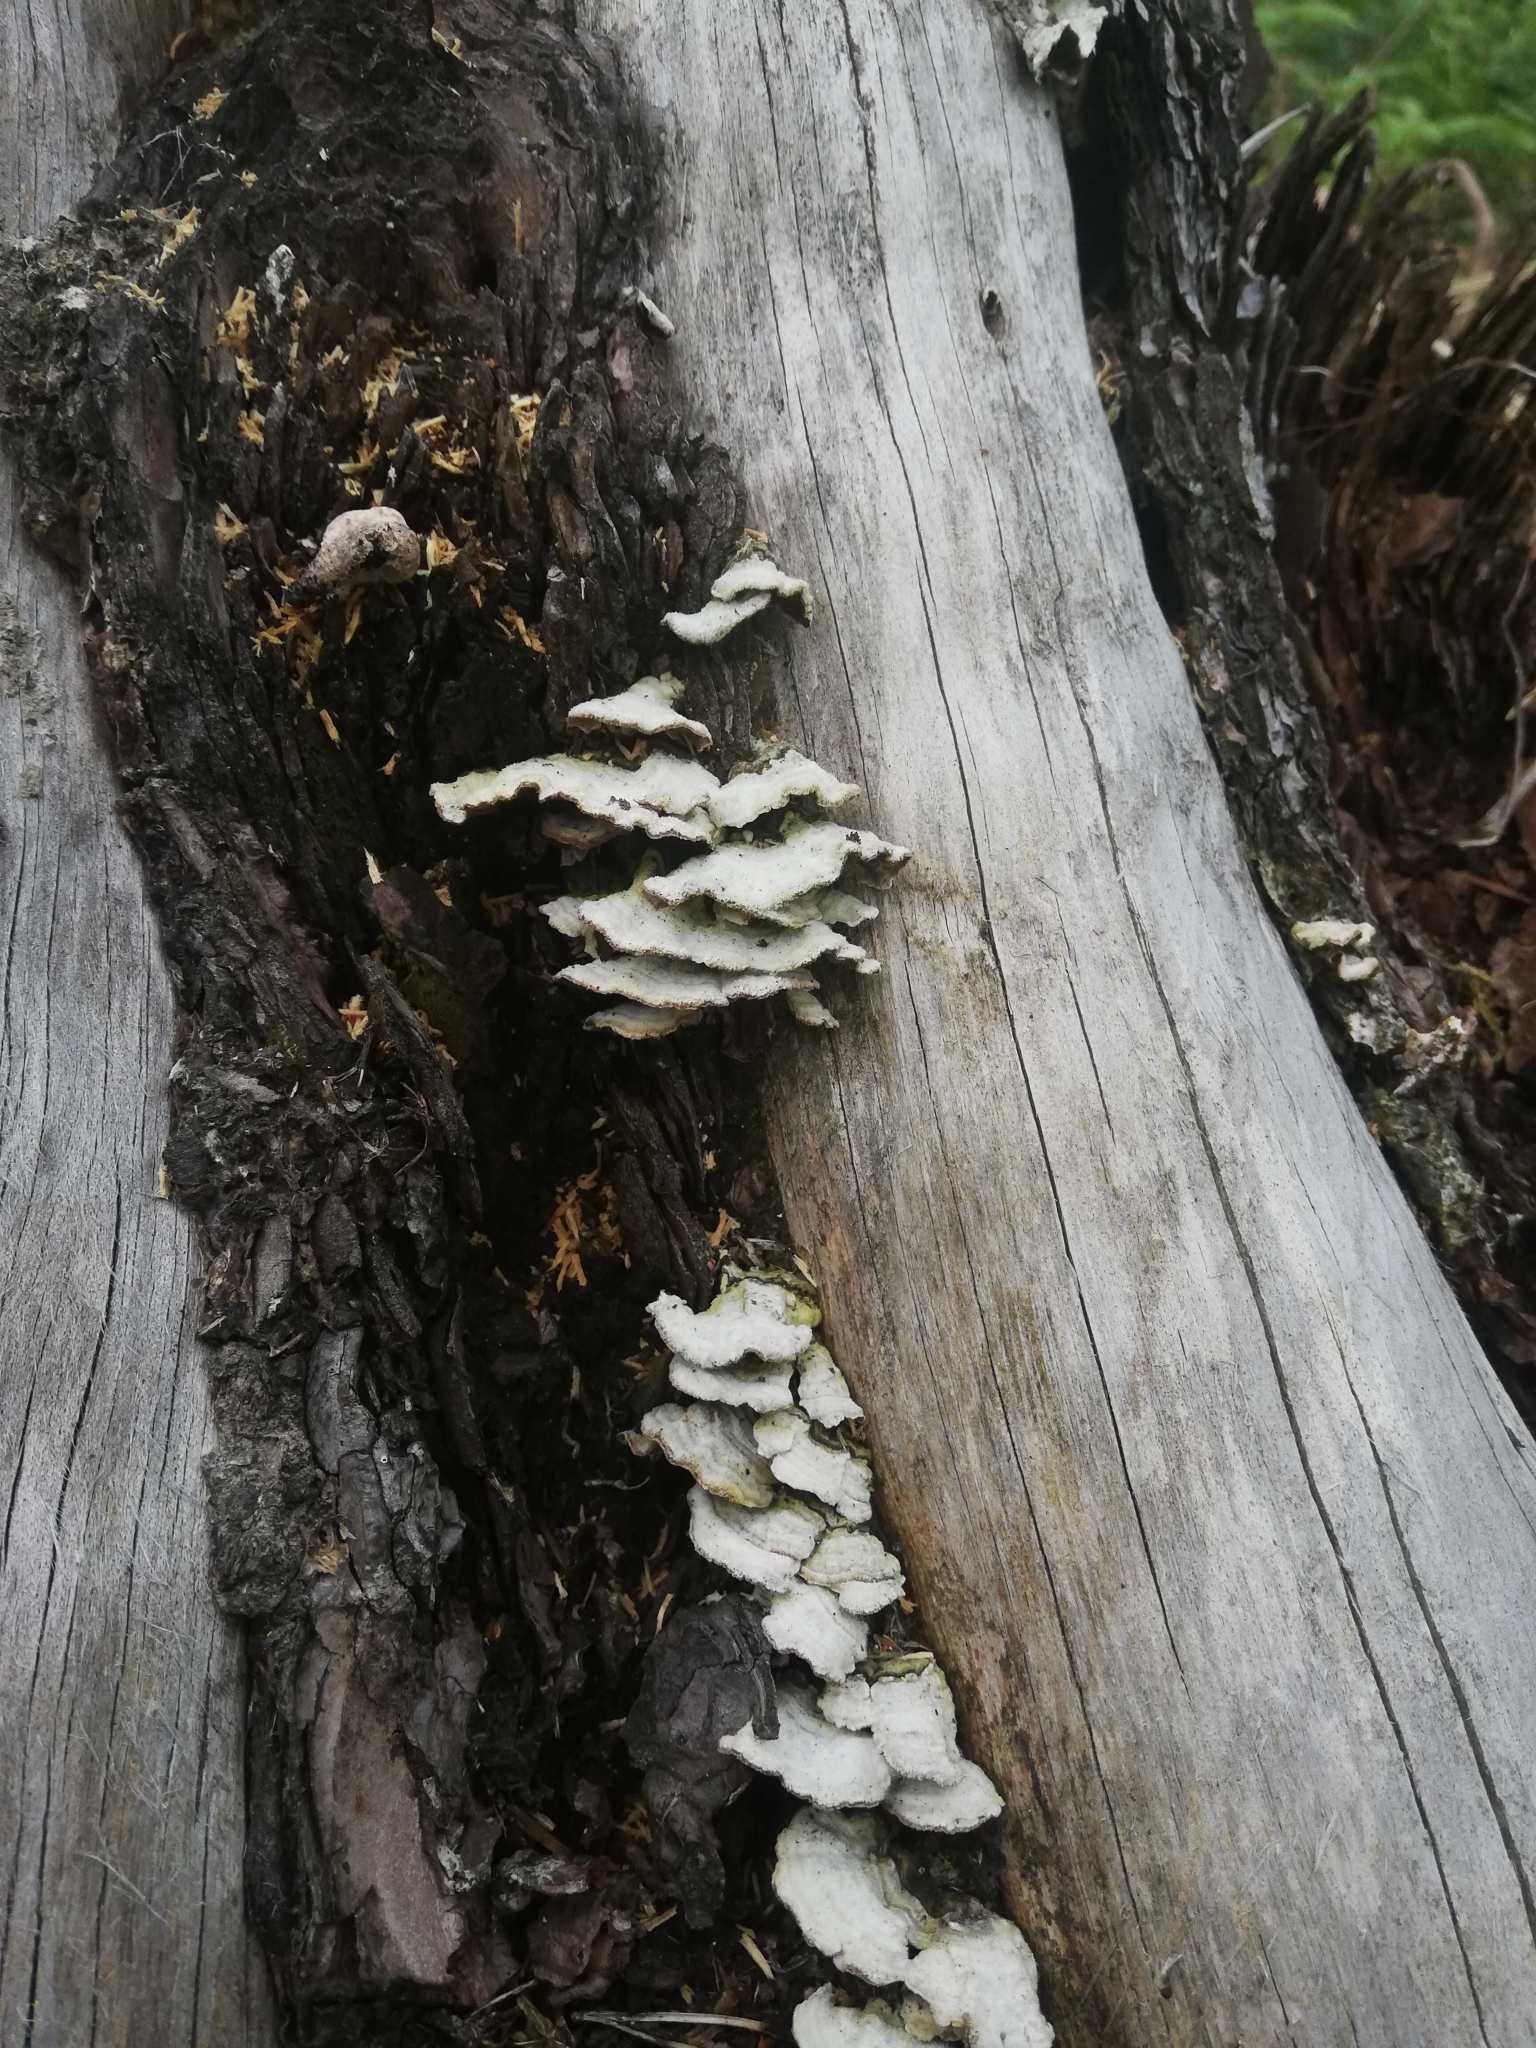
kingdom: Fungi
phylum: Basidiomycota
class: Agaricomycetes
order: Hymenochaetales
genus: Trichaptum
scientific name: Trichaptum abietinum
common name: Purplepore bracket
